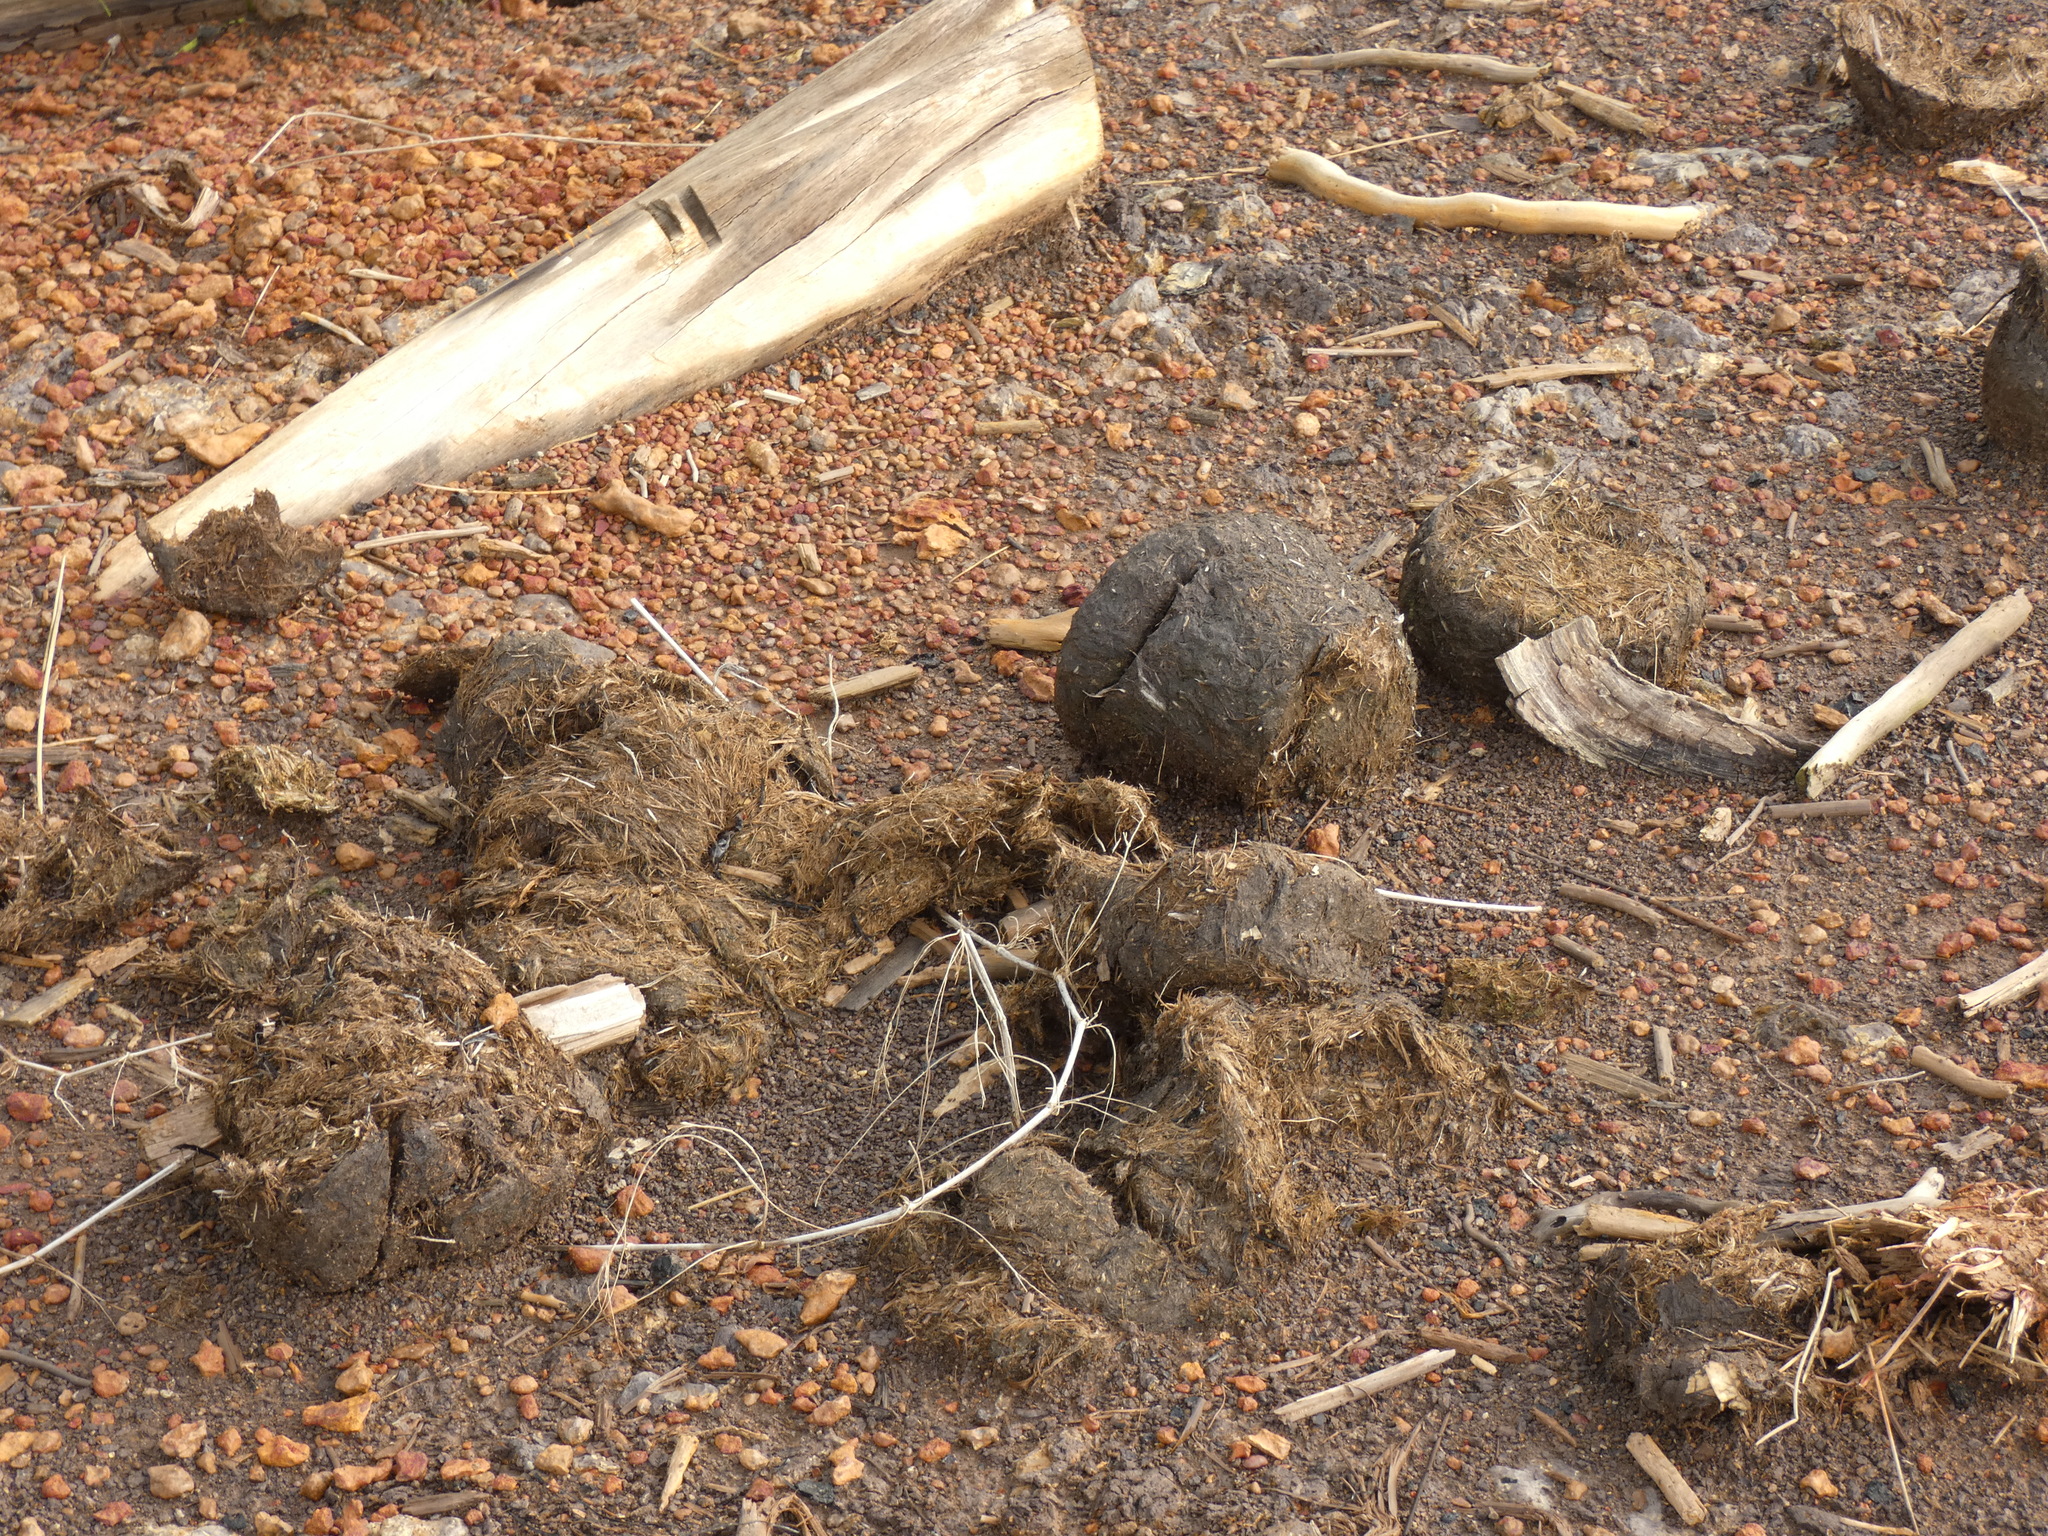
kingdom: Animalia
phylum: Chordata
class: Mammalia
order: Proboscidea
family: Elephantidae
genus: Elephas
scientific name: Elephas maximus
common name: Asian elephant
